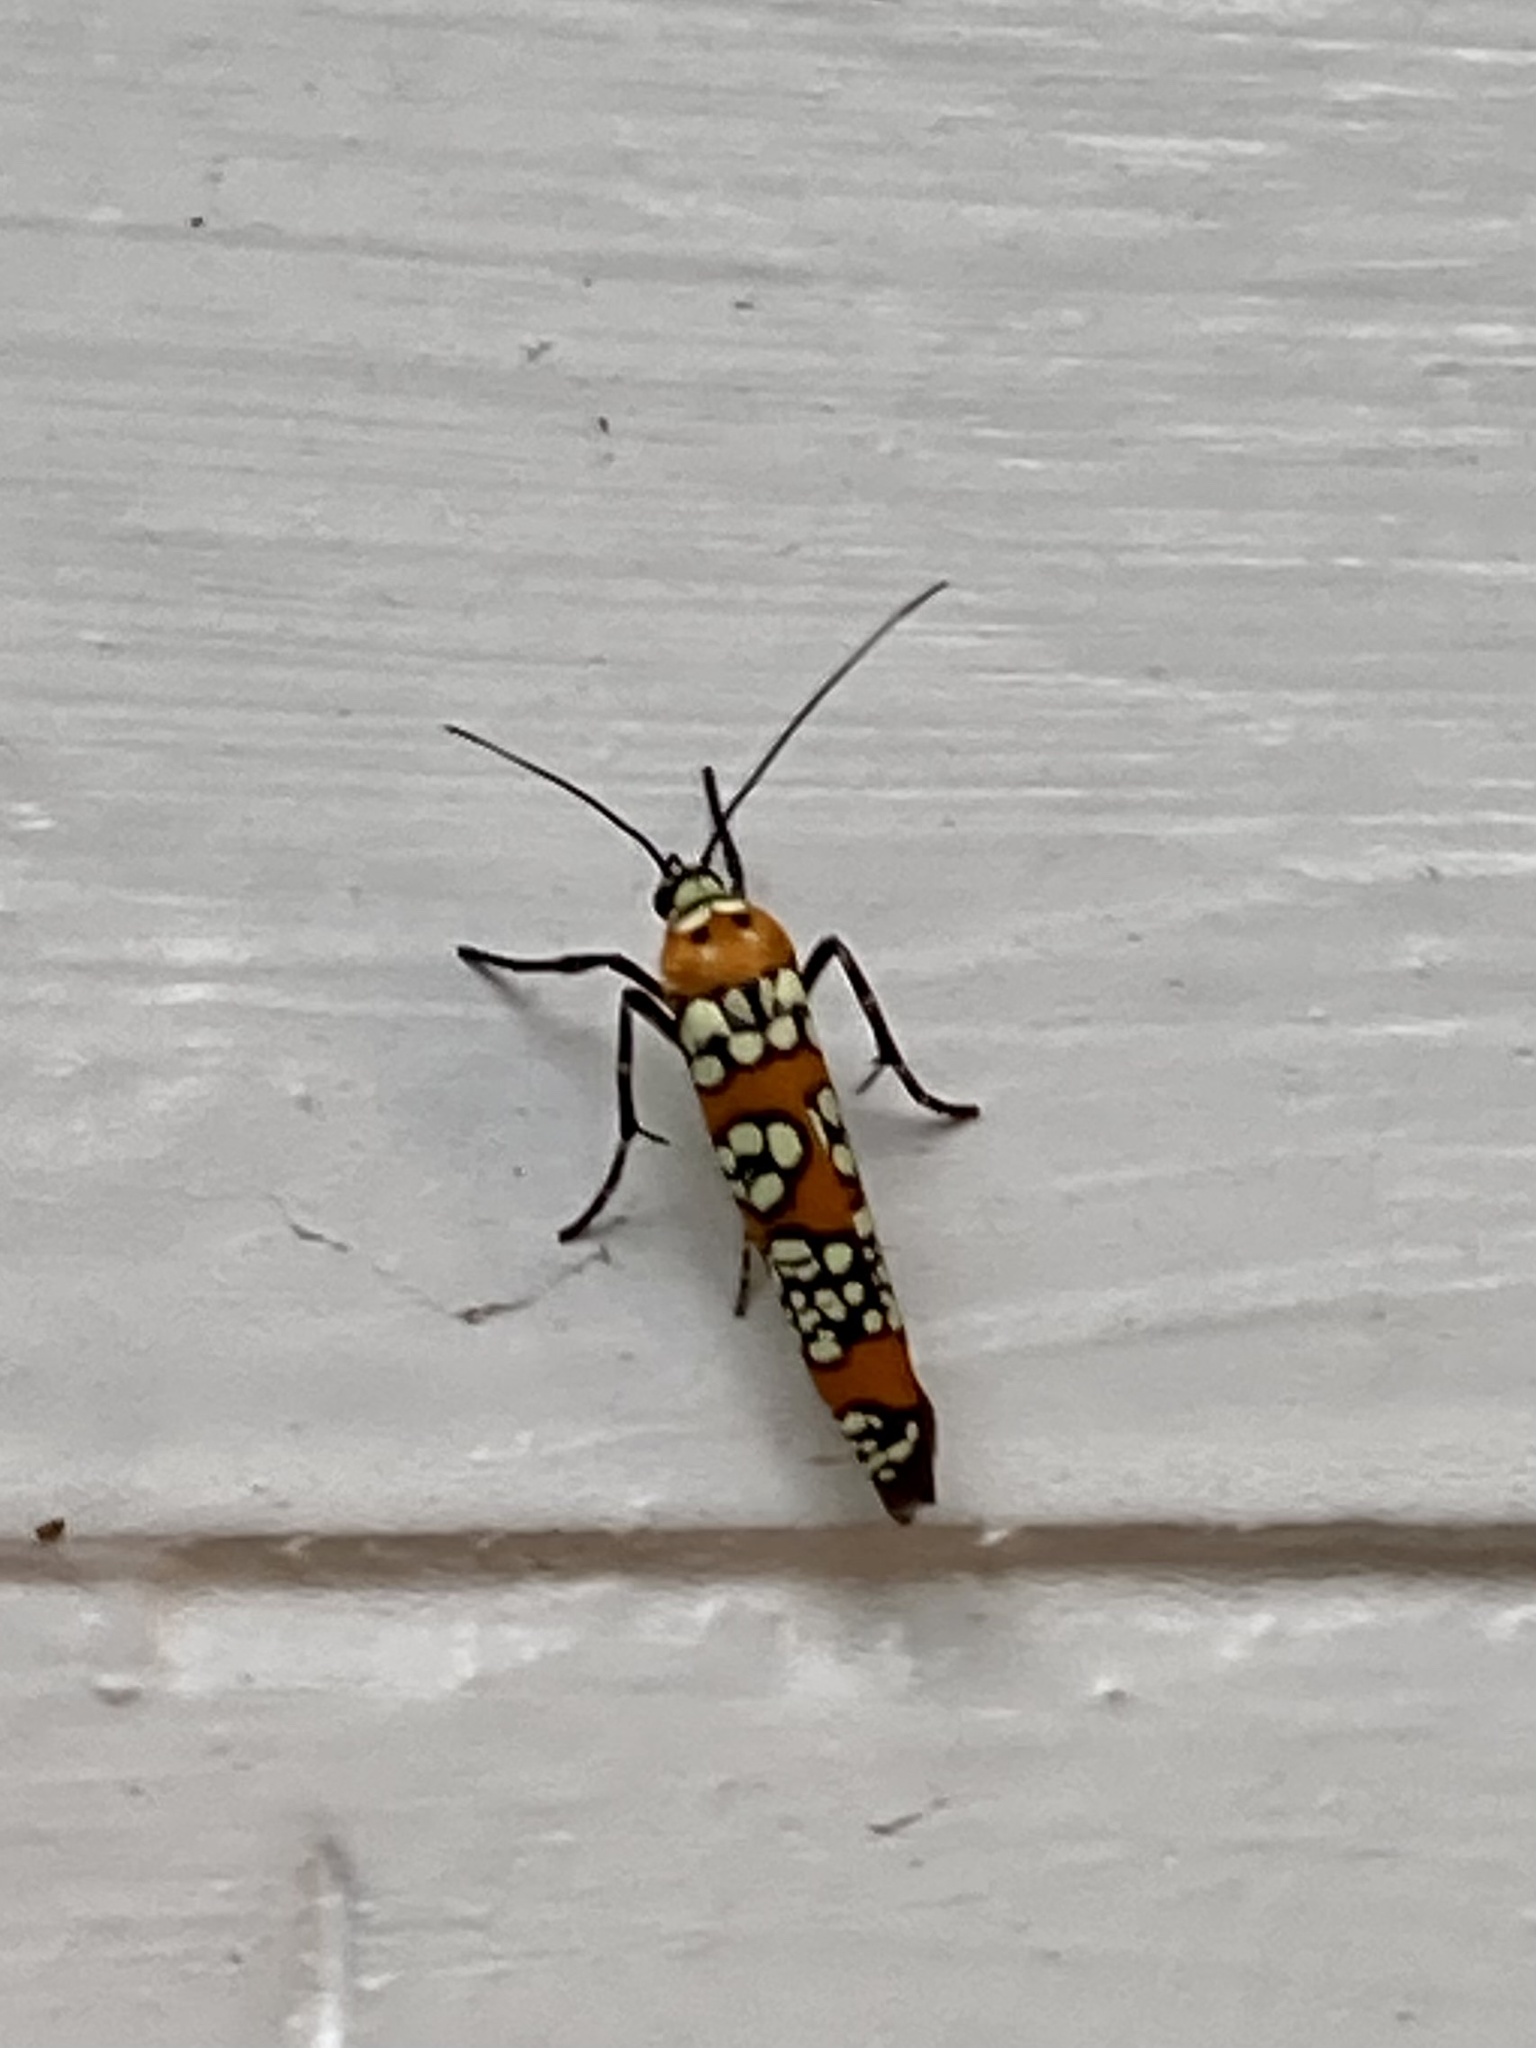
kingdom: Animalia
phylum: Arthropoda
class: Insecta
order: Lepidoptera
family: Attevidae
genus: Atteva
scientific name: Atteva punctella
